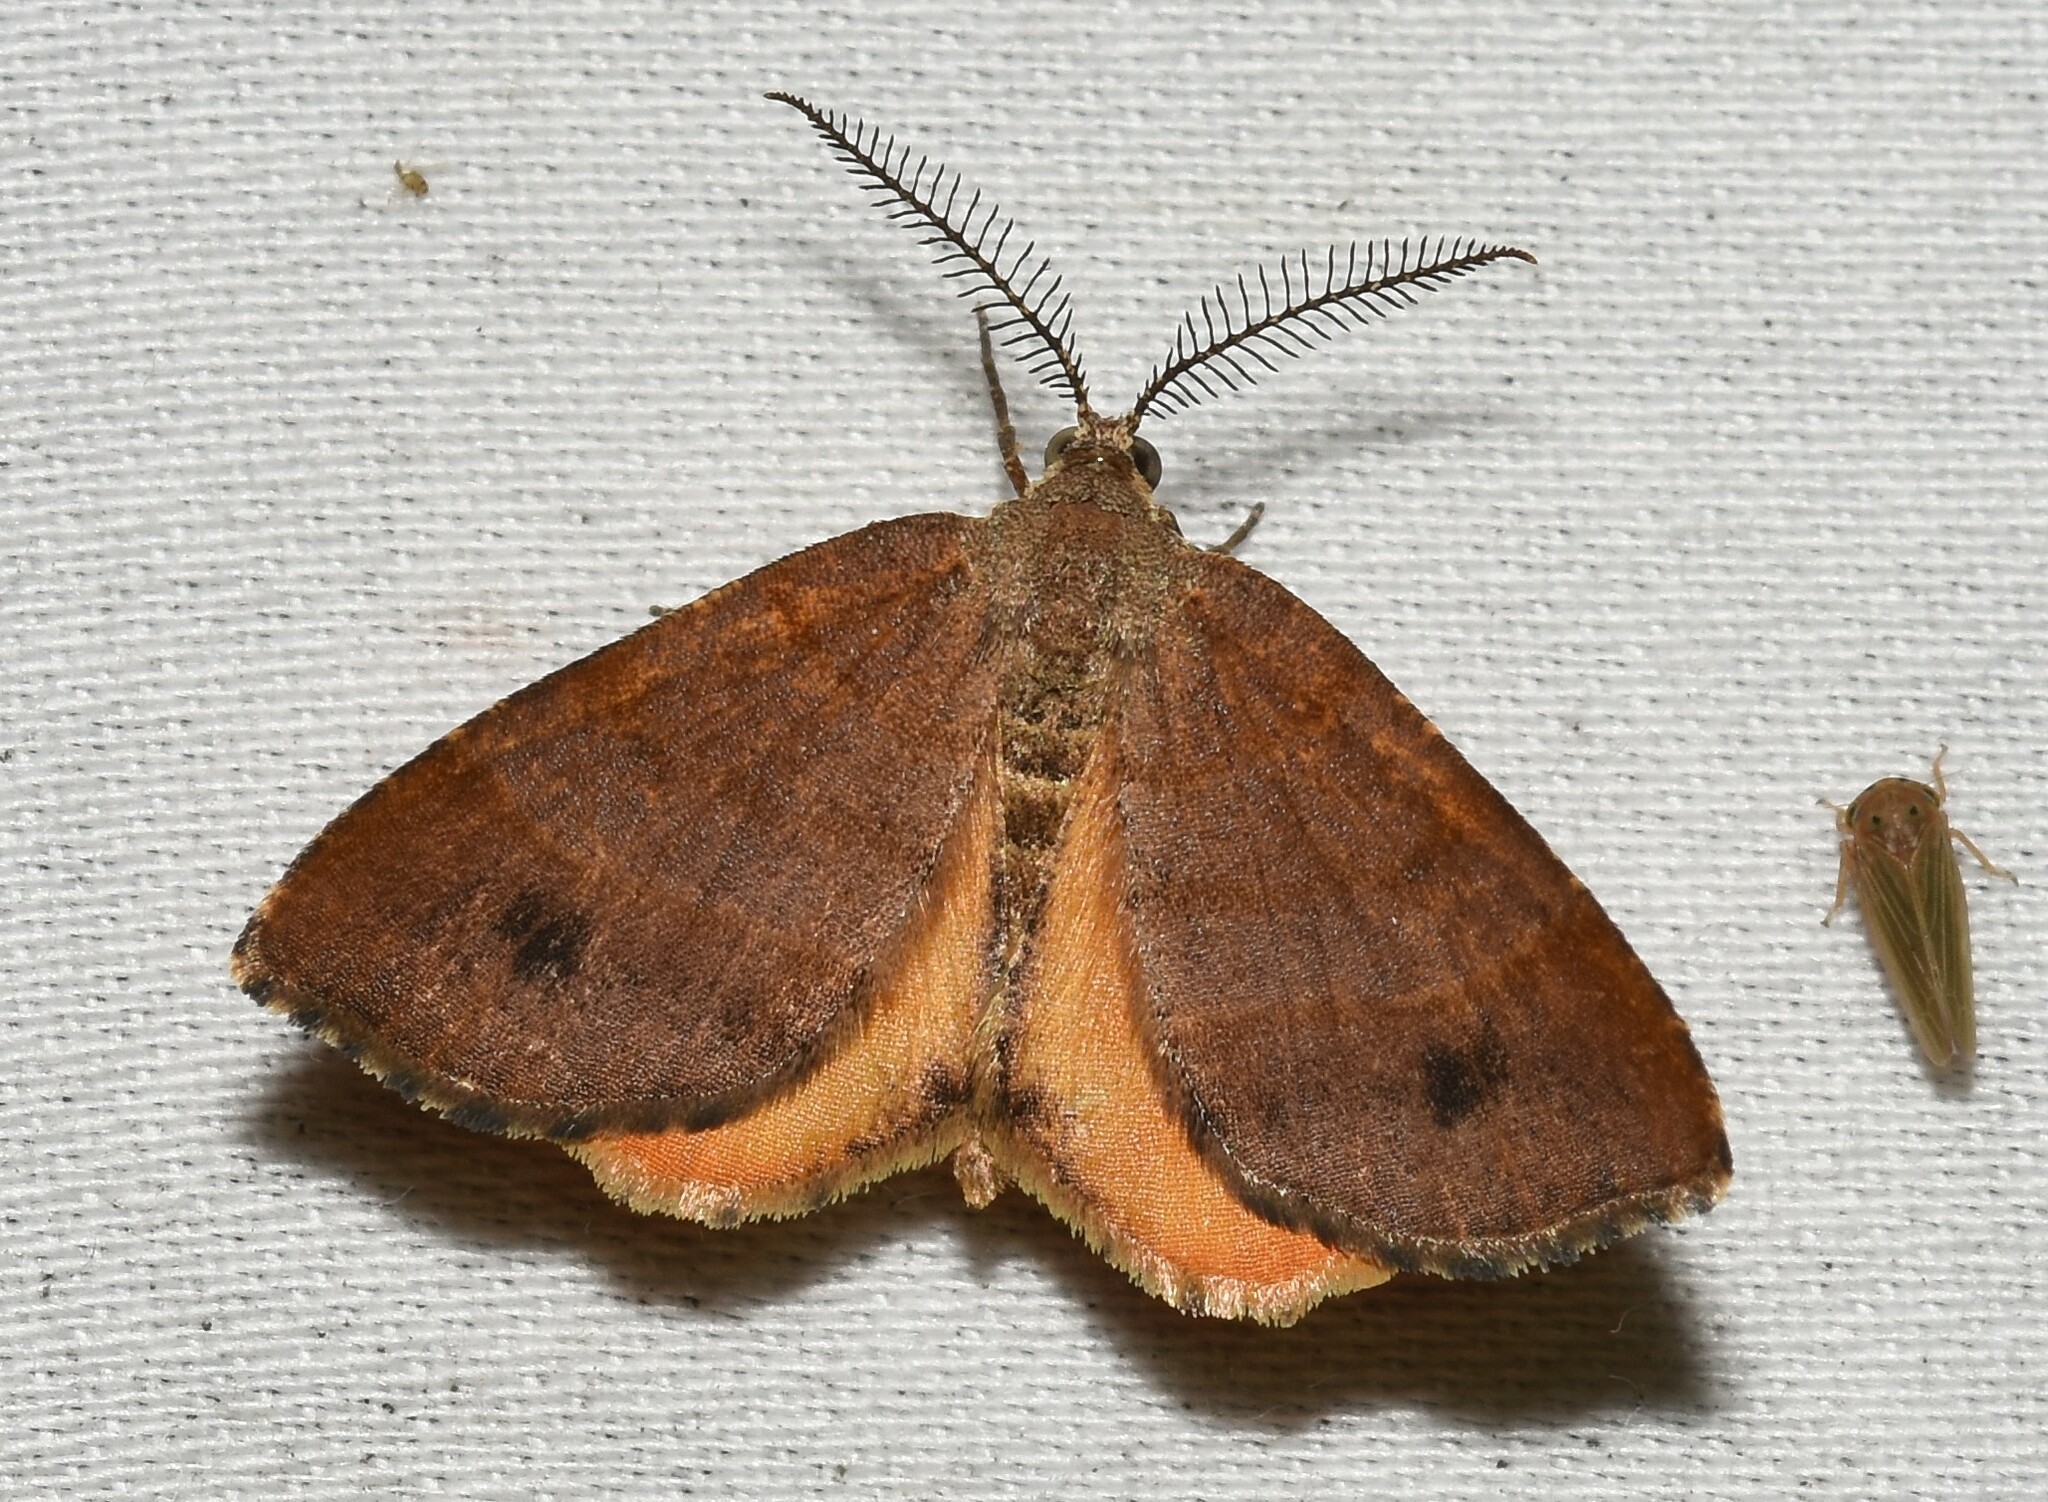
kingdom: Animalia
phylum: Arthropoda
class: Insecta
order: Lepidoptera
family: Geometridae
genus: Mellilla
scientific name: Mellilla xanthometata
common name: Orange wing moth
